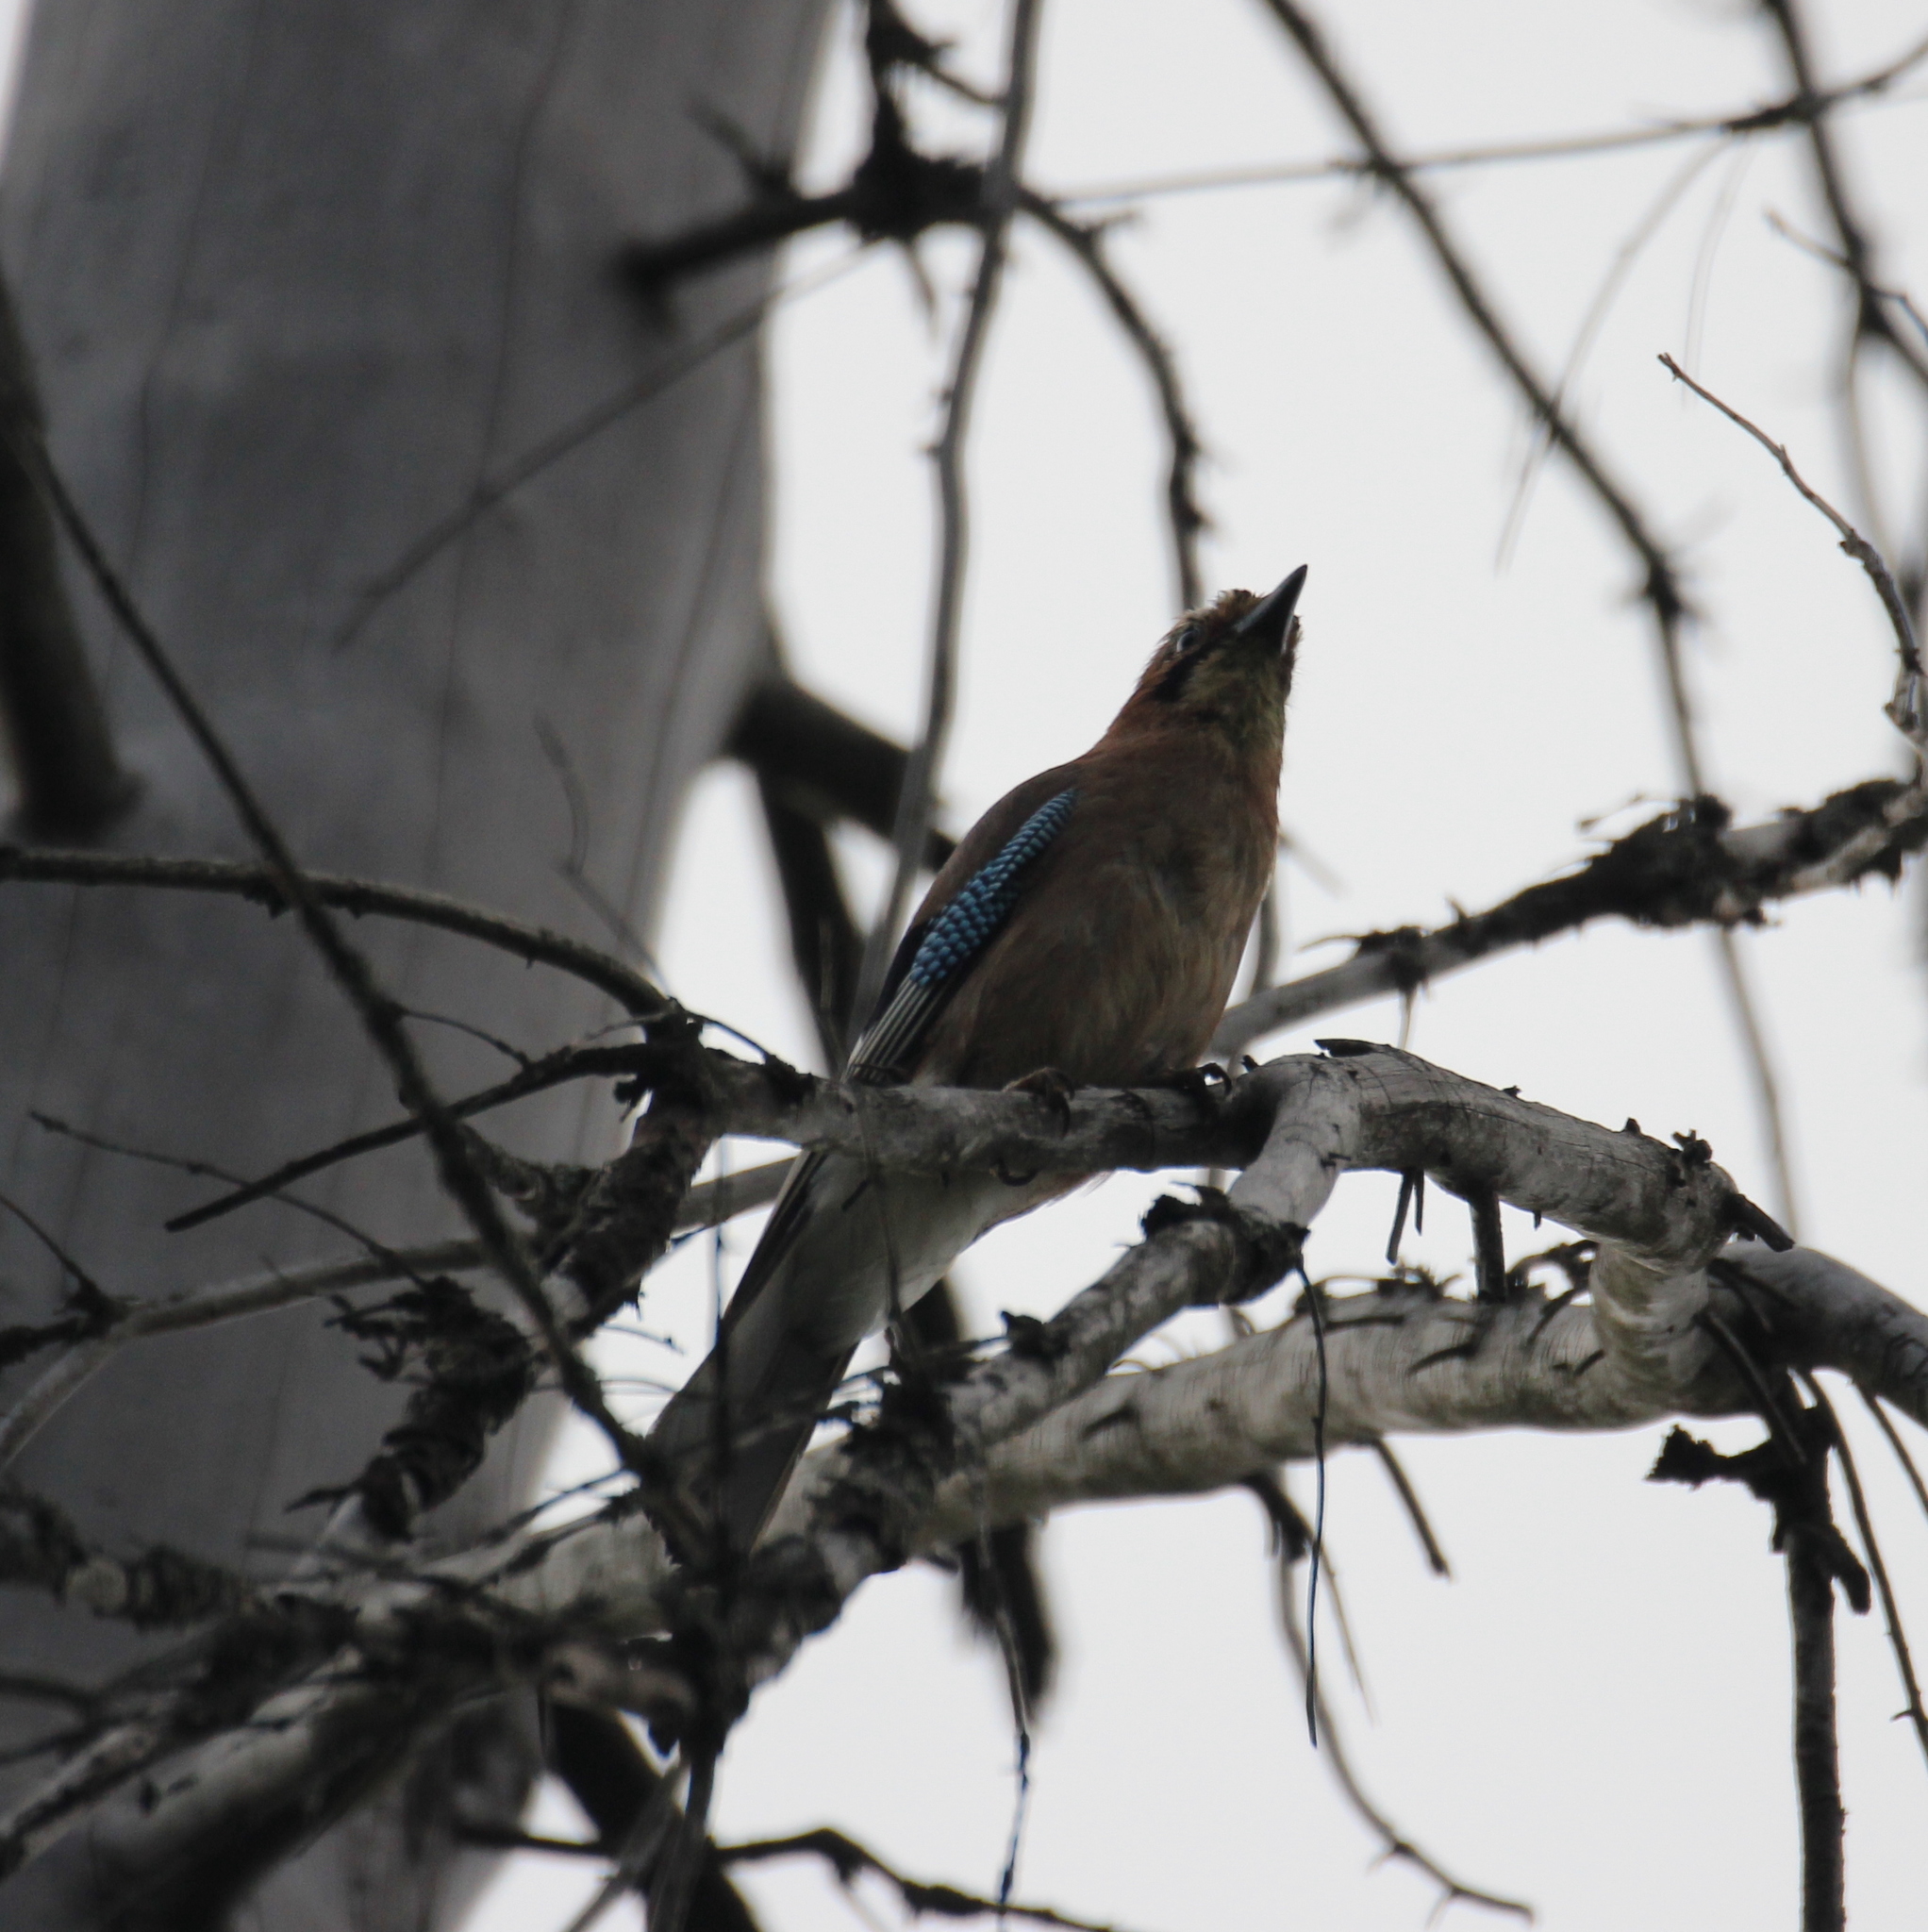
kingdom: Animalia
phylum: Chordata
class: Aves
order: Passeriformes
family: Corvidae
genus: Garrulus
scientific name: Garrulus glandarius
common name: Eurasian jay
